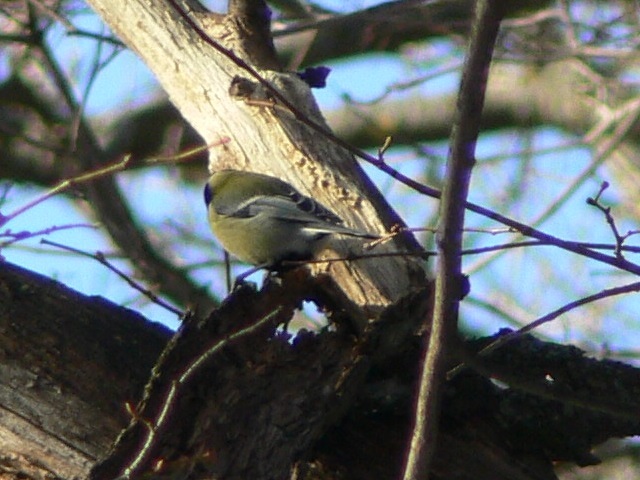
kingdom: Animalia
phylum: Chordata
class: Aves
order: Passeriformes
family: Paridae
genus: Parus
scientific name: Parus major
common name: Great tit
